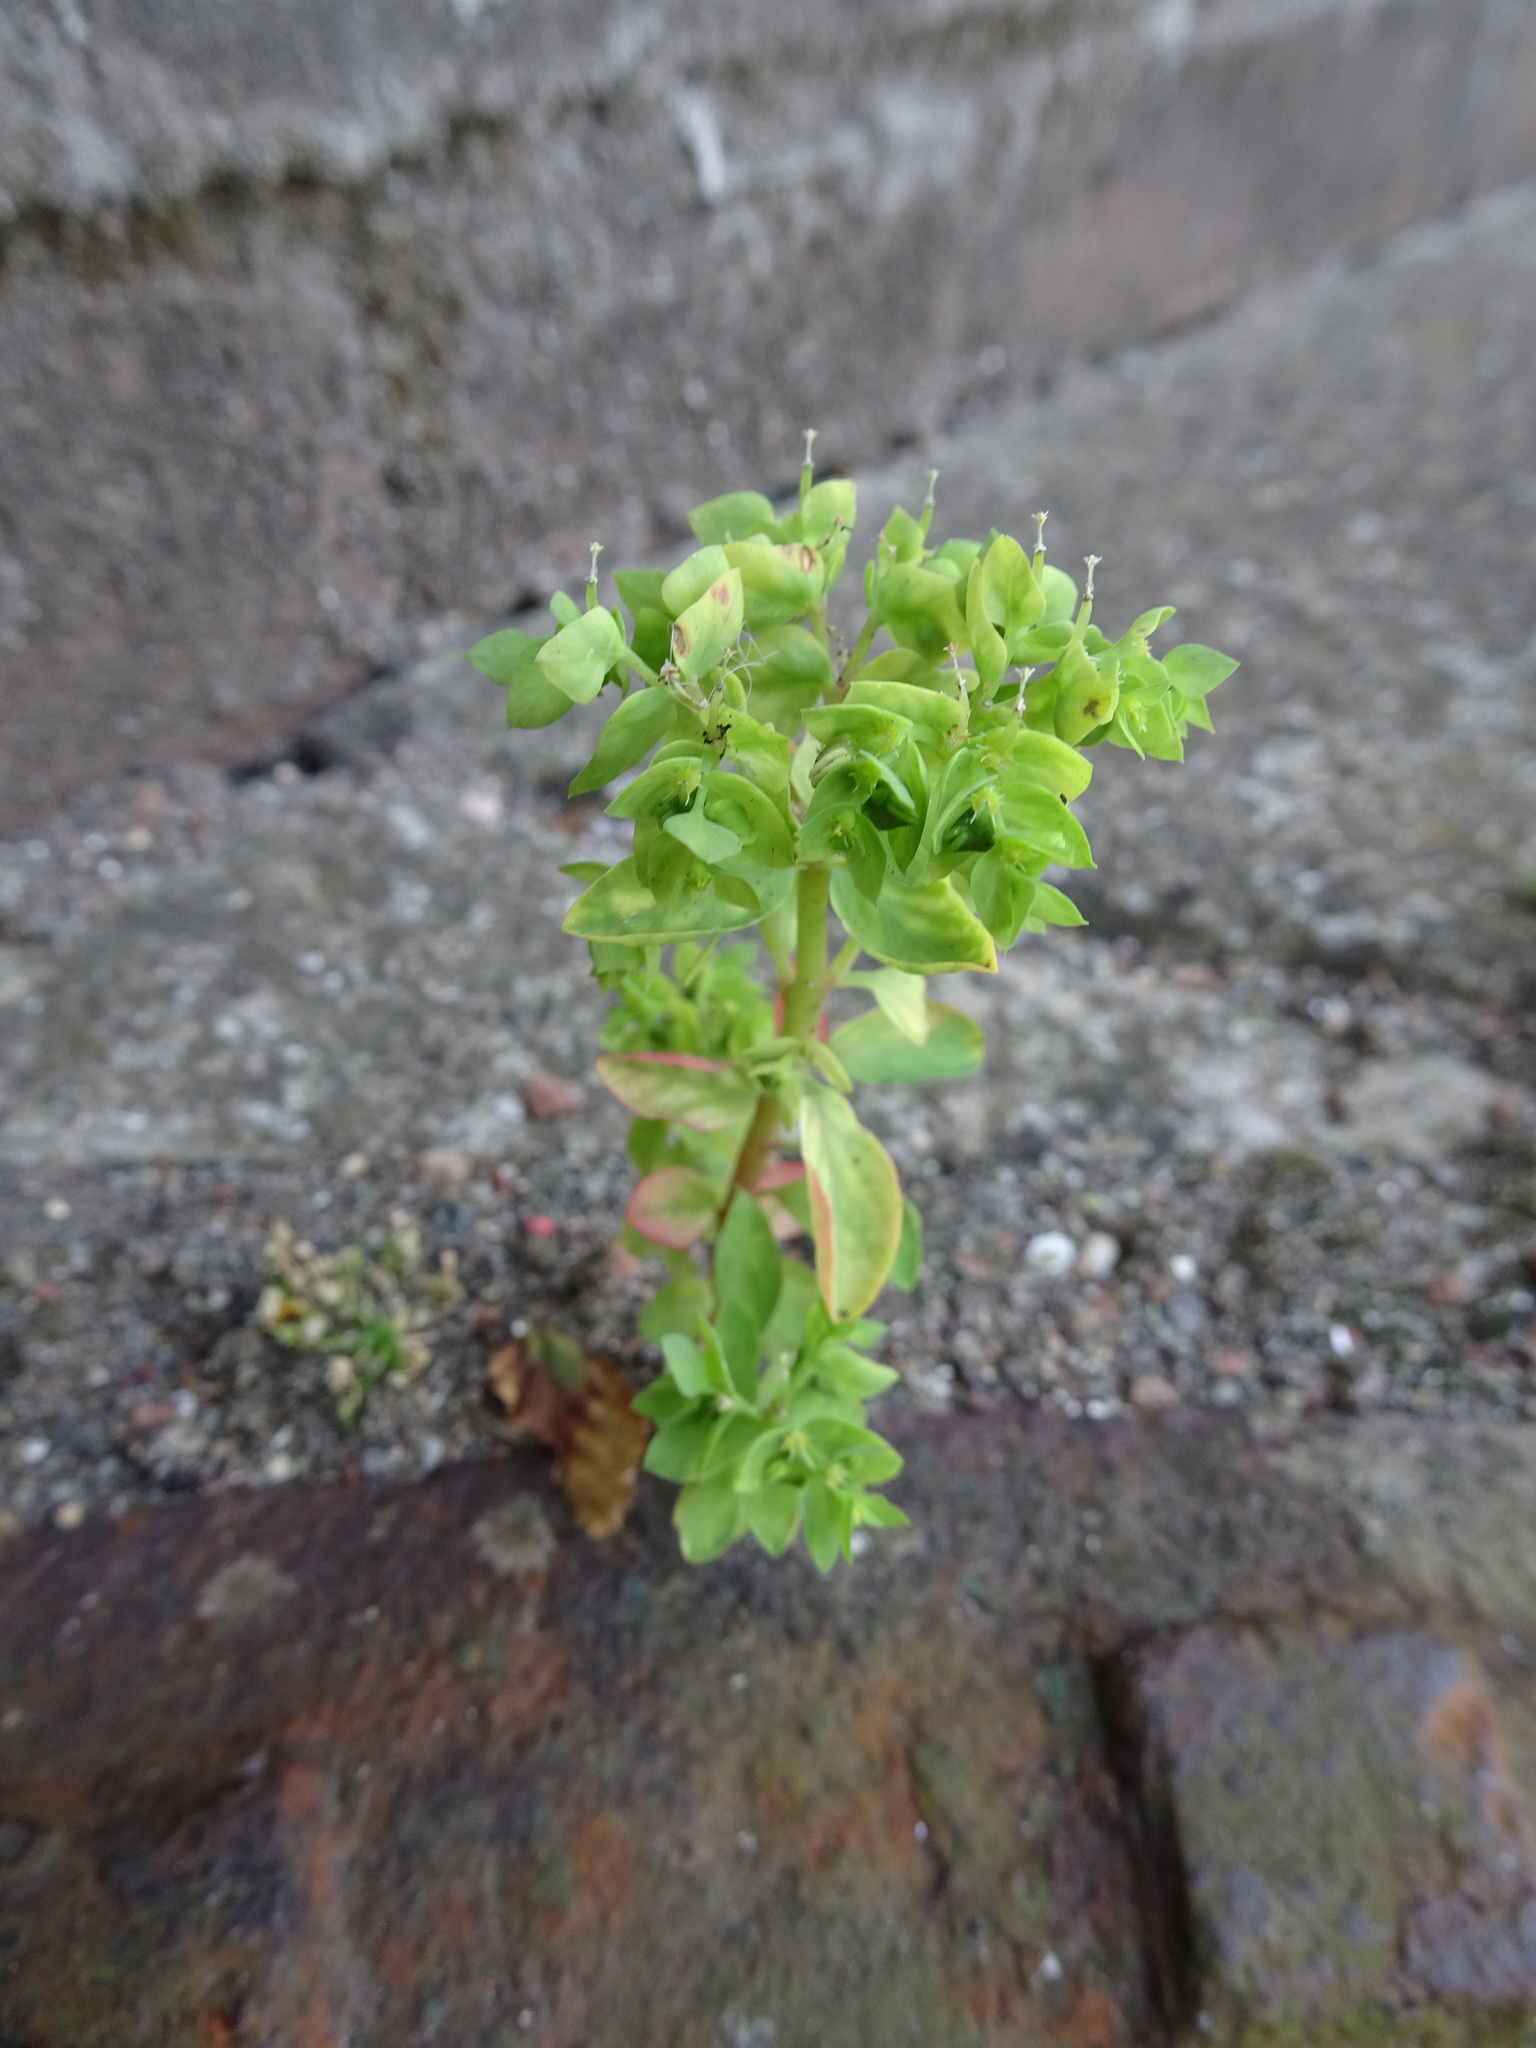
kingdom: Plantae
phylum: Tracheophyta
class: Magnoliopsida
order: Malpighiales
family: Euphorbiaceae
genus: Euphorbia
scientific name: Euphorbia peplus
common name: Petty spurge
